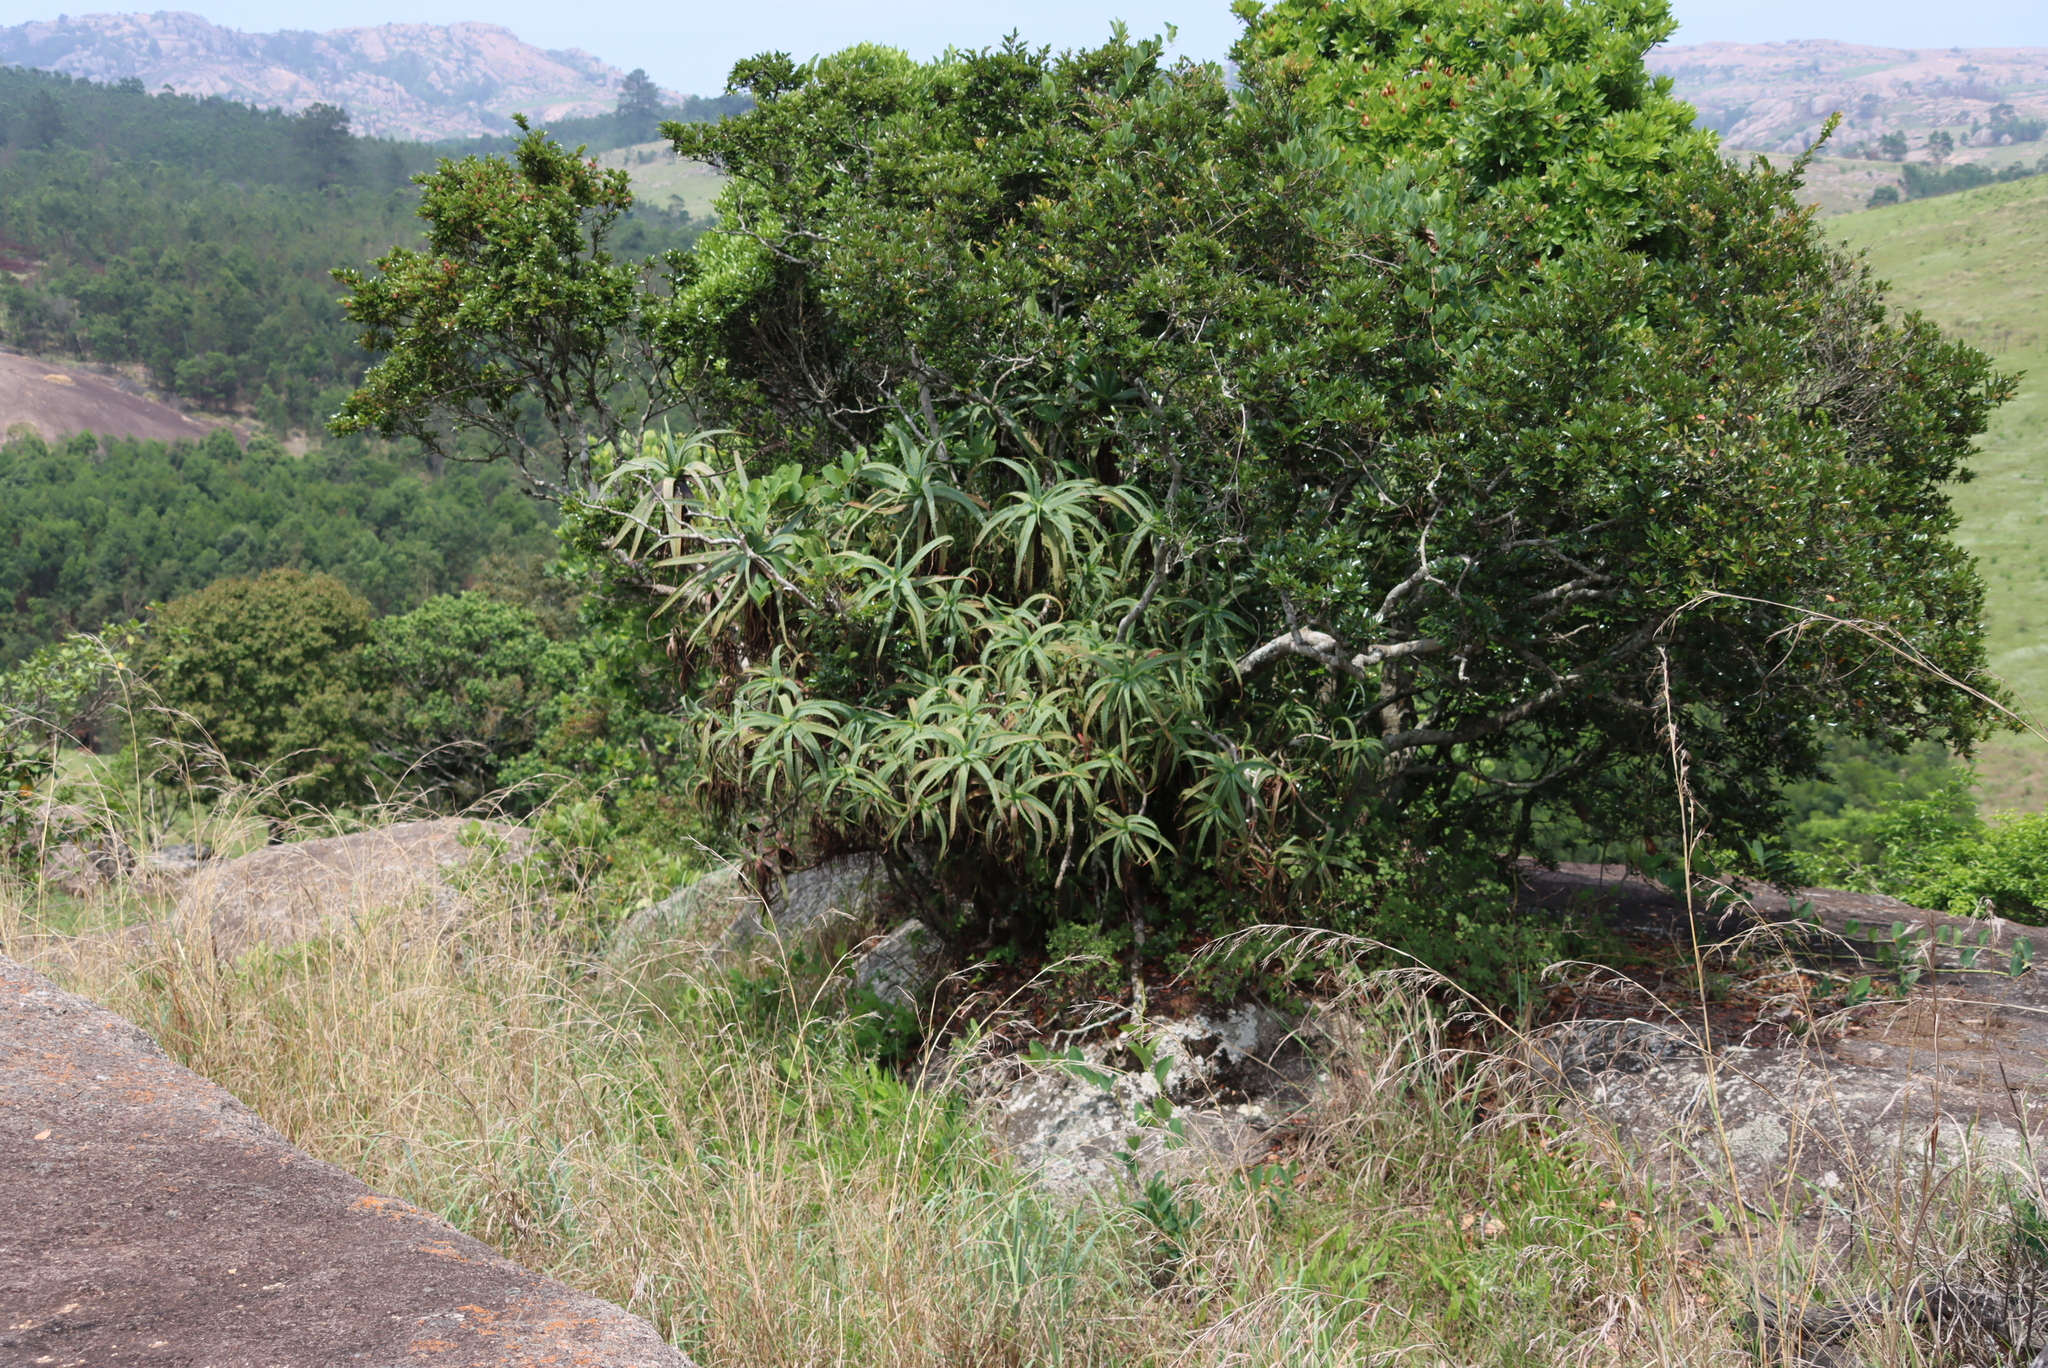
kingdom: Plantae
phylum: Tracheophyta
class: Liliopsida
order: Asparagales
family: Asphodelaceae
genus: Aloe
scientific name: Aloe arborescens
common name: Candelabra aloe
